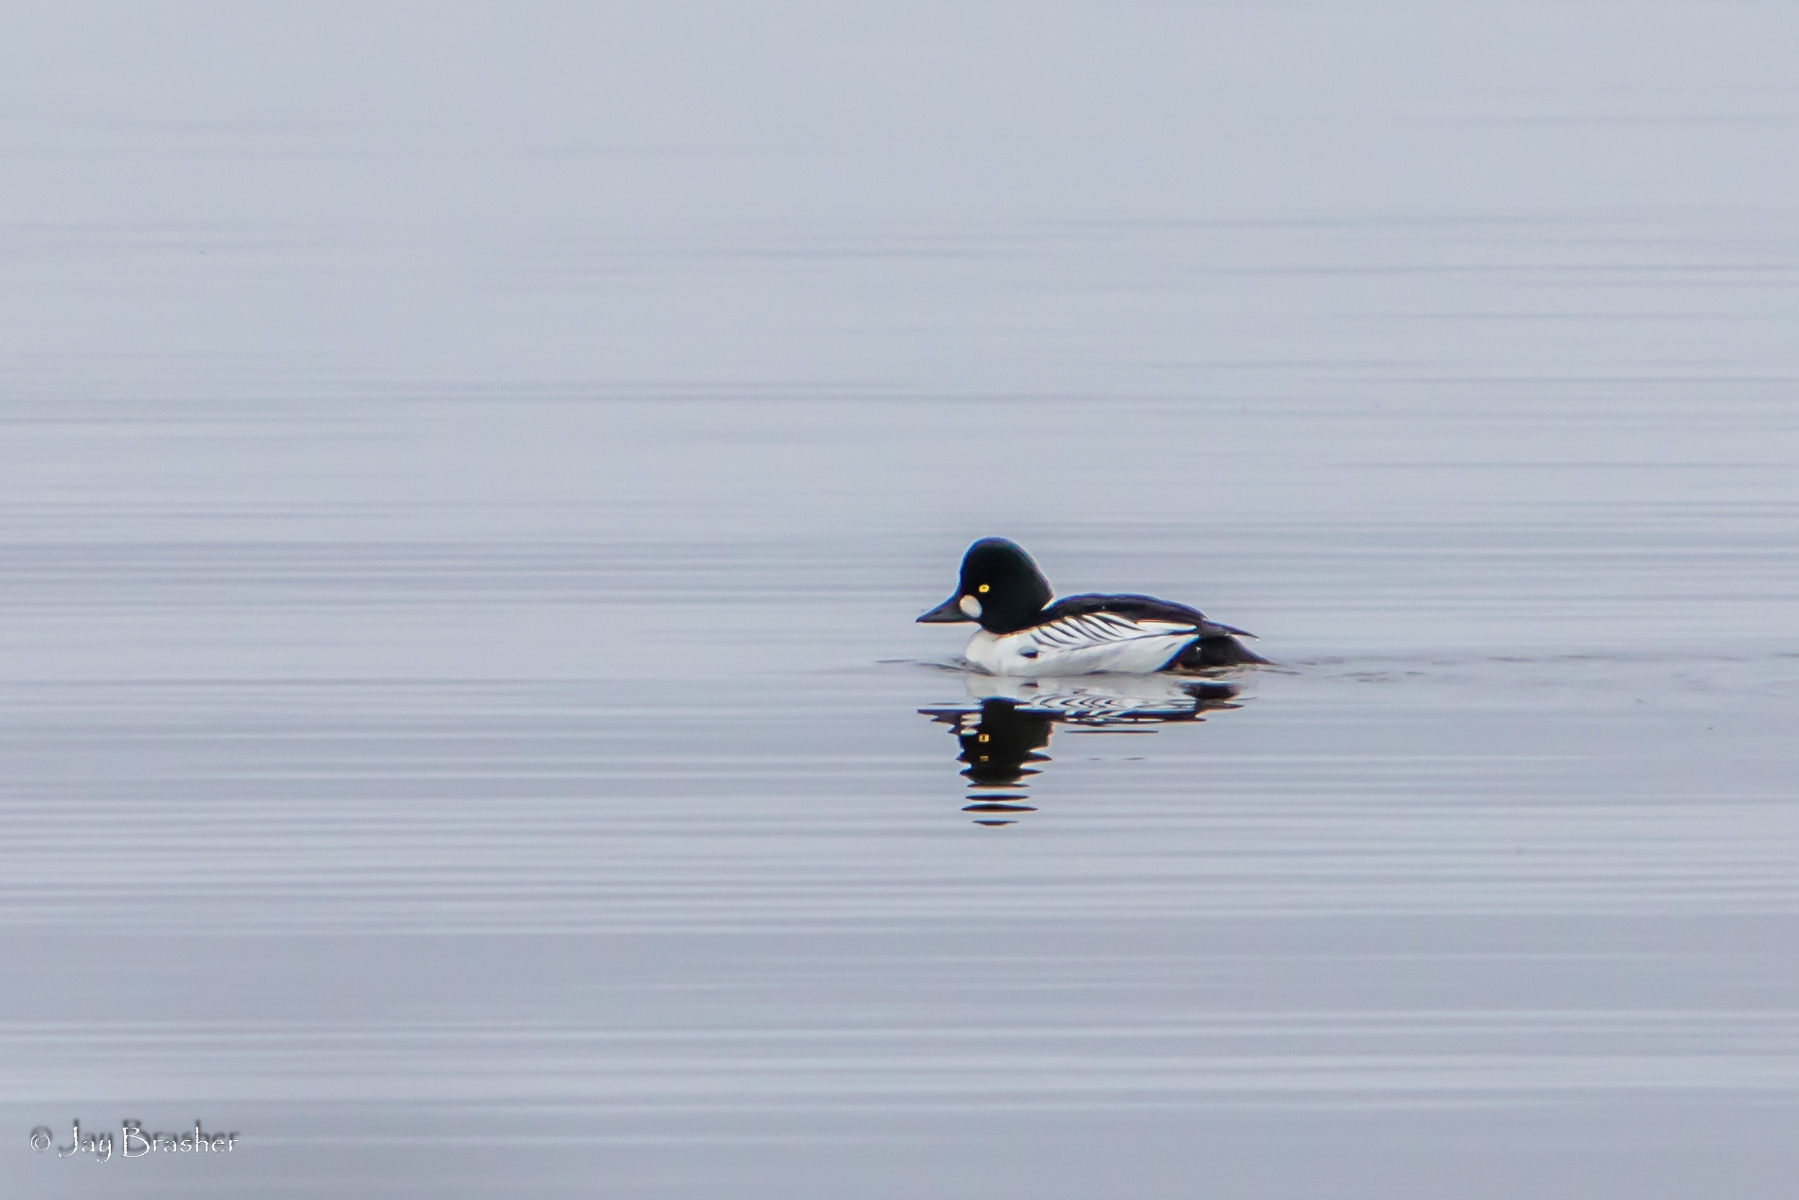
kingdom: Animalia
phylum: Chordata
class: Aves
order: Anseriformes
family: Anatidae
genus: Bucephala
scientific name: Bucephala clangula
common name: Common goldeneye
